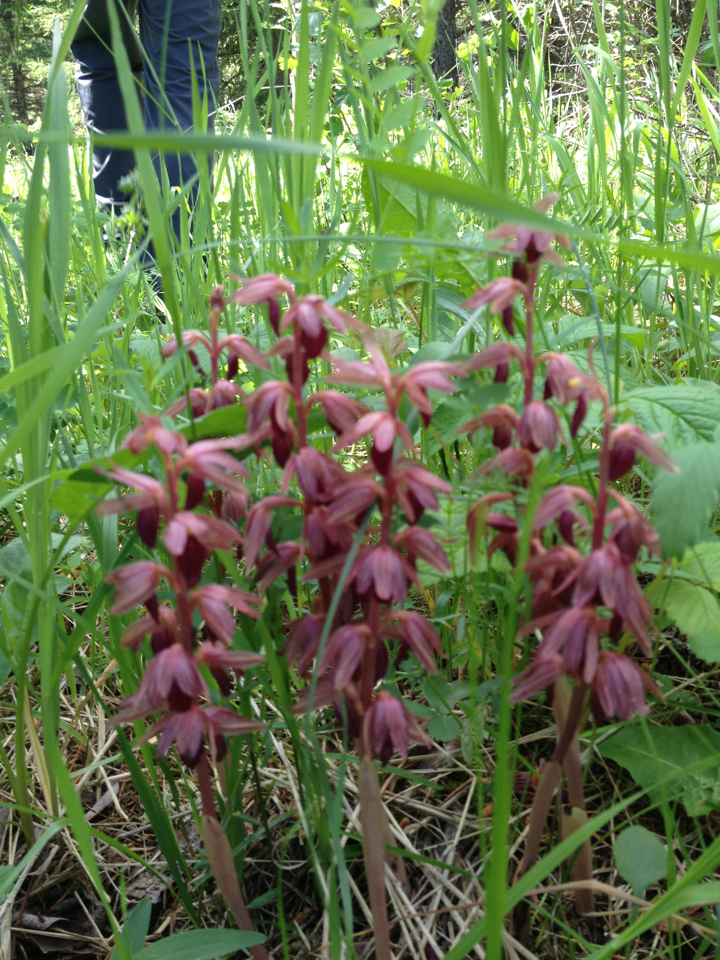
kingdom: Plantae
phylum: Tracheophyta
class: Liliopsida
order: Asparagales
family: Orchidaceae
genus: Corallorhiza
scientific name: Corallorhiza striata
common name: Hooded coralroot
